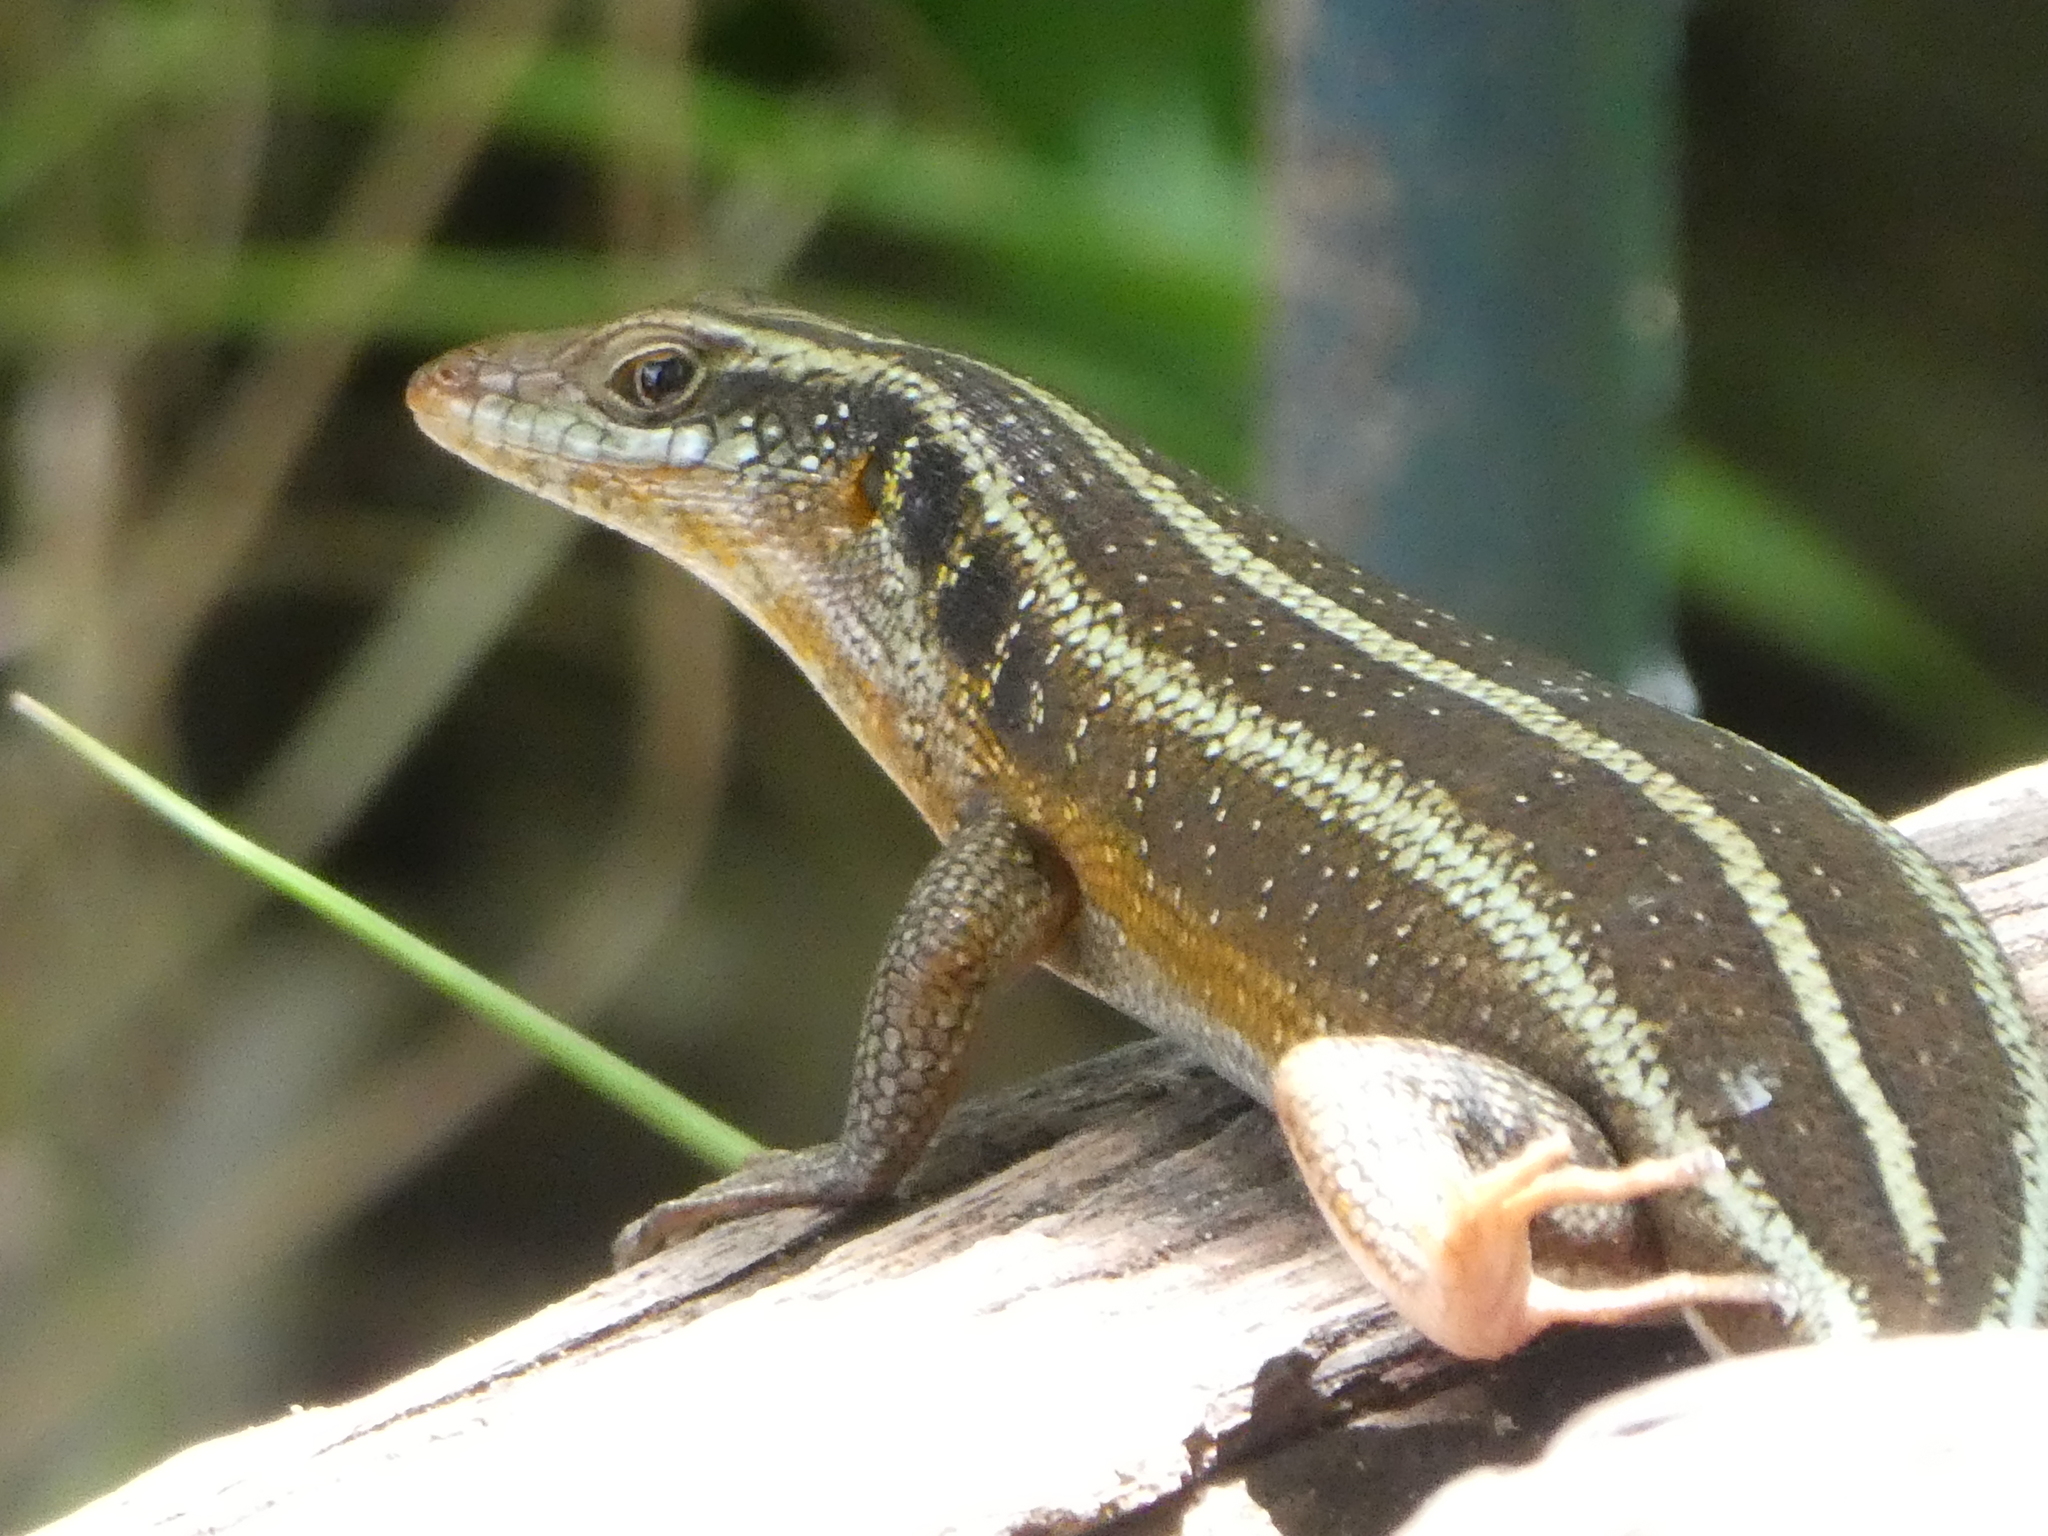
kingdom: Animalia
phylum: Chordata
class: Squamata
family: Scincidae
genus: Trachylepis
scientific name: Trachylepis margaritifera
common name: Rainbow skink
